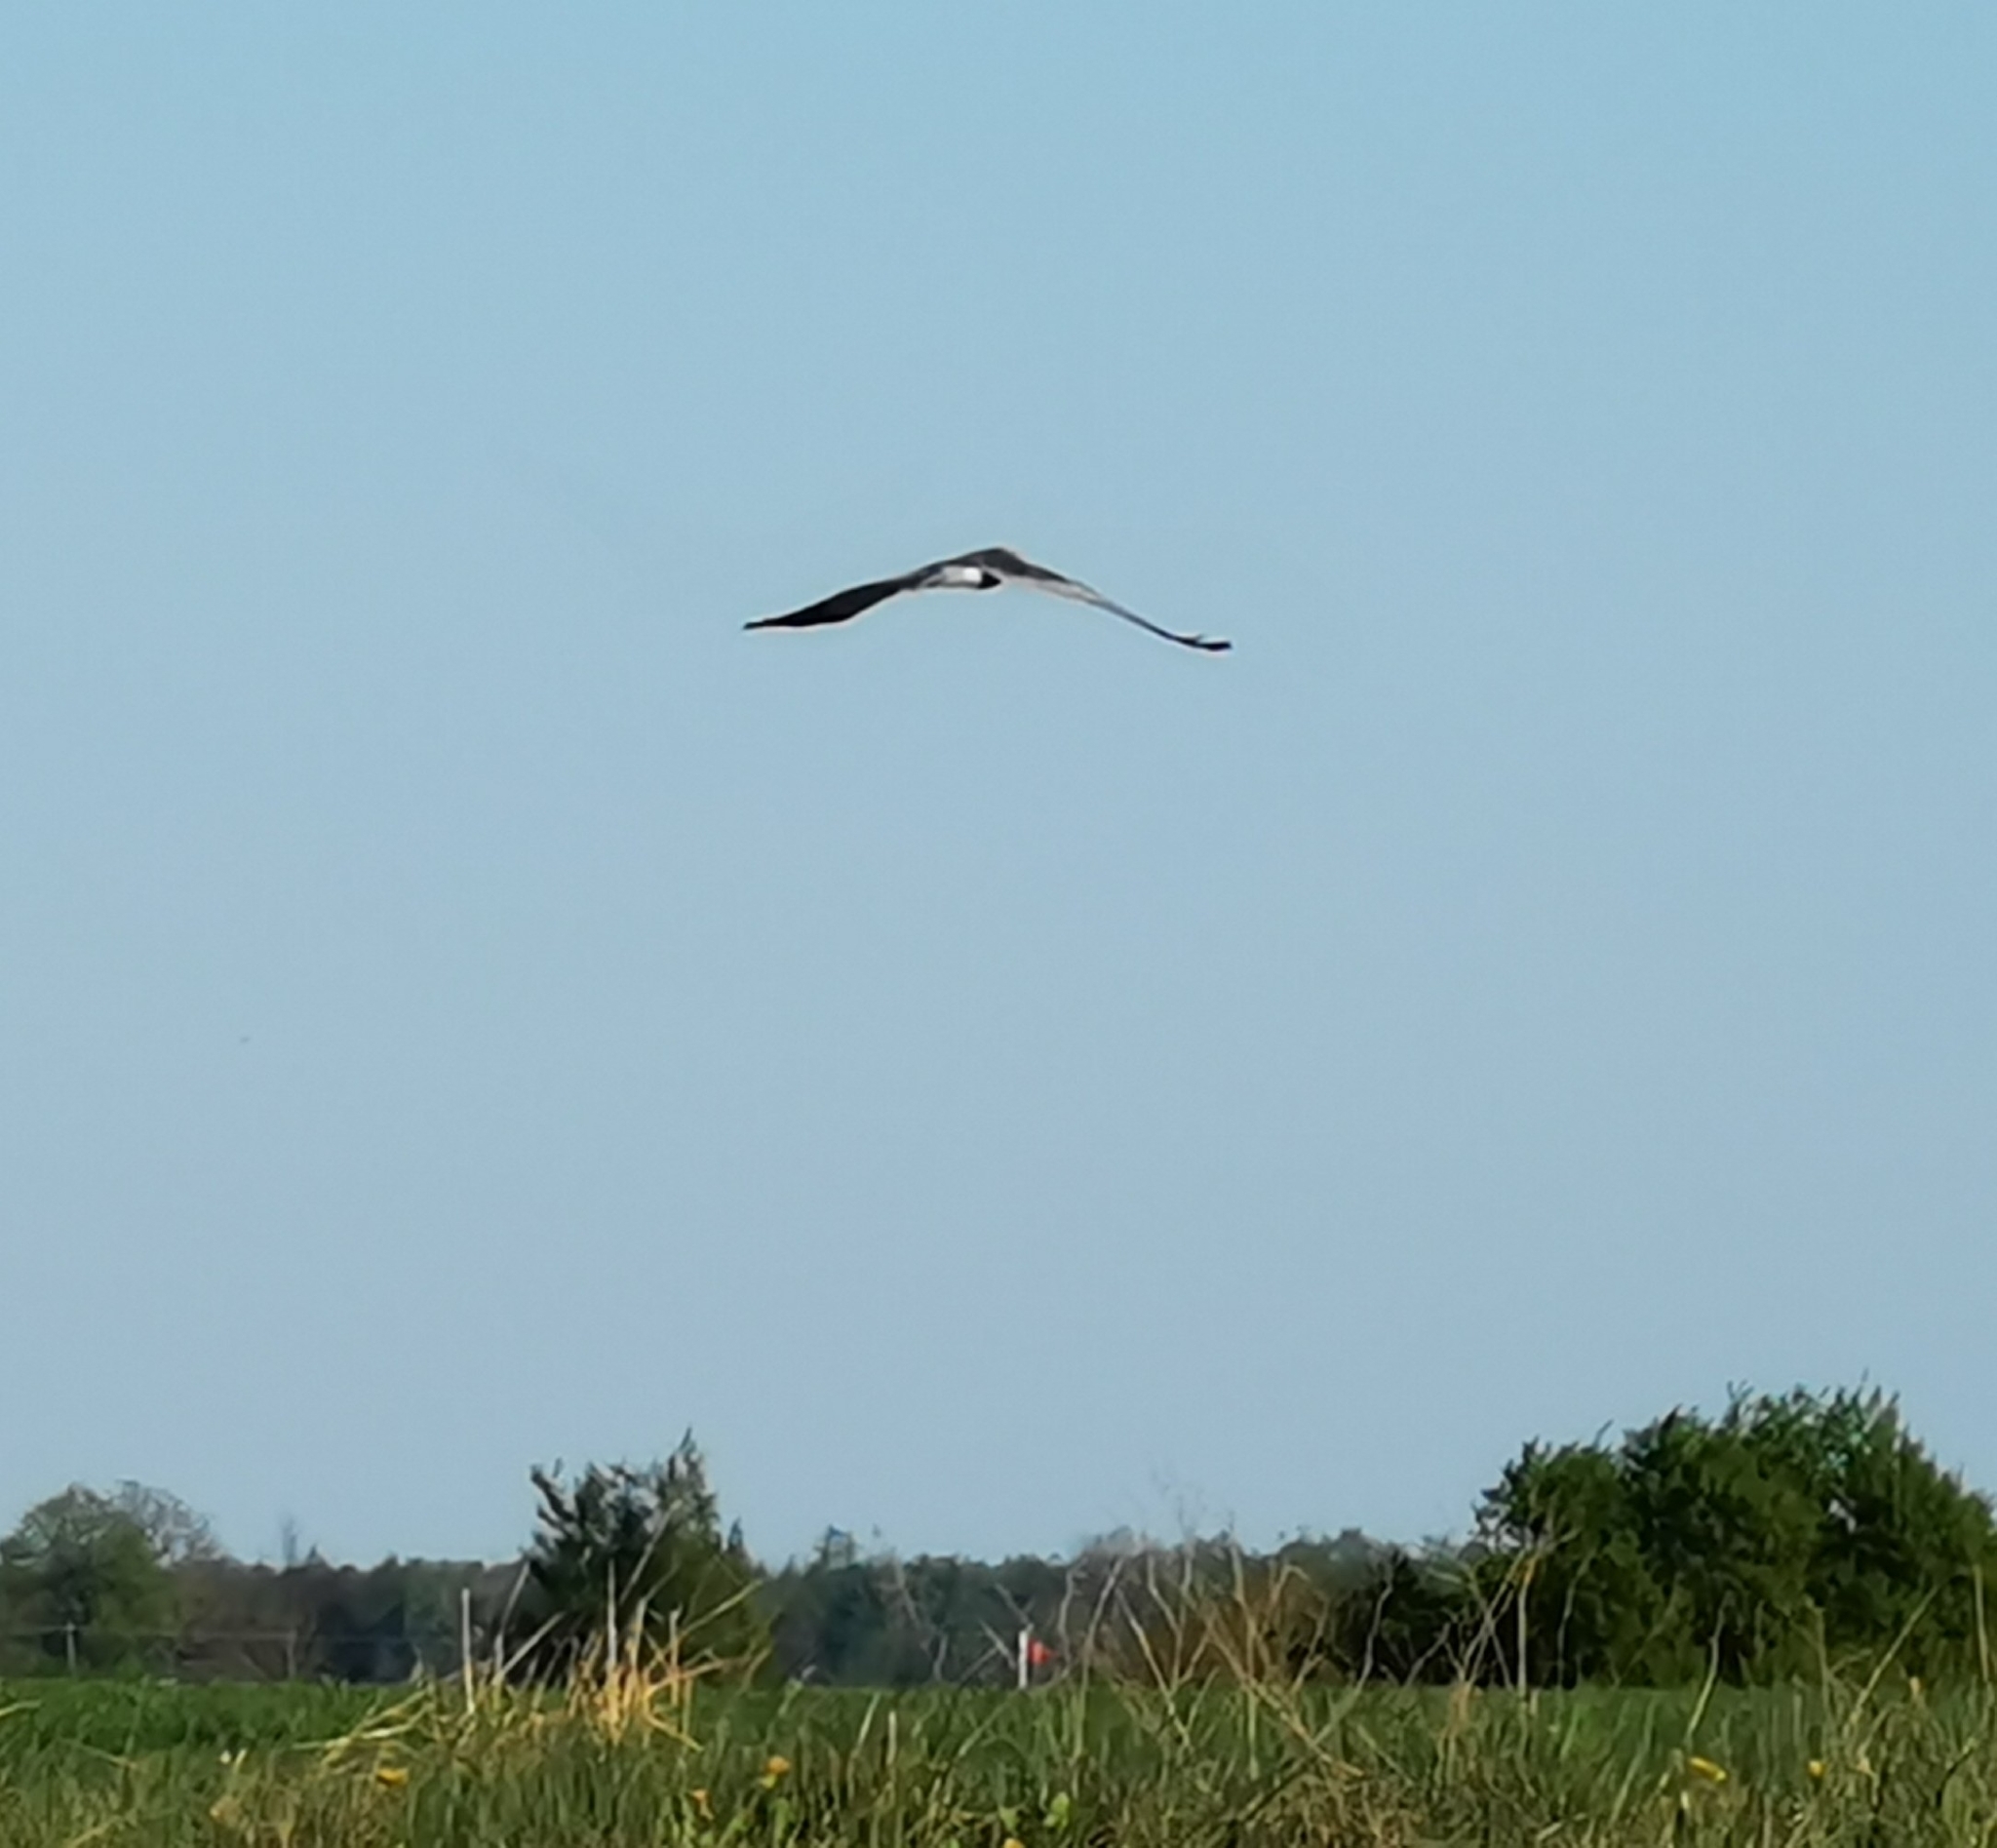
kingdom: Animalia
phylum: Chordata
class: Aves
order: Accipitriformes
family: Accipitridae
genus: Circus
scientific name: Circus aeruginosus
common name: Western marsh harrier
